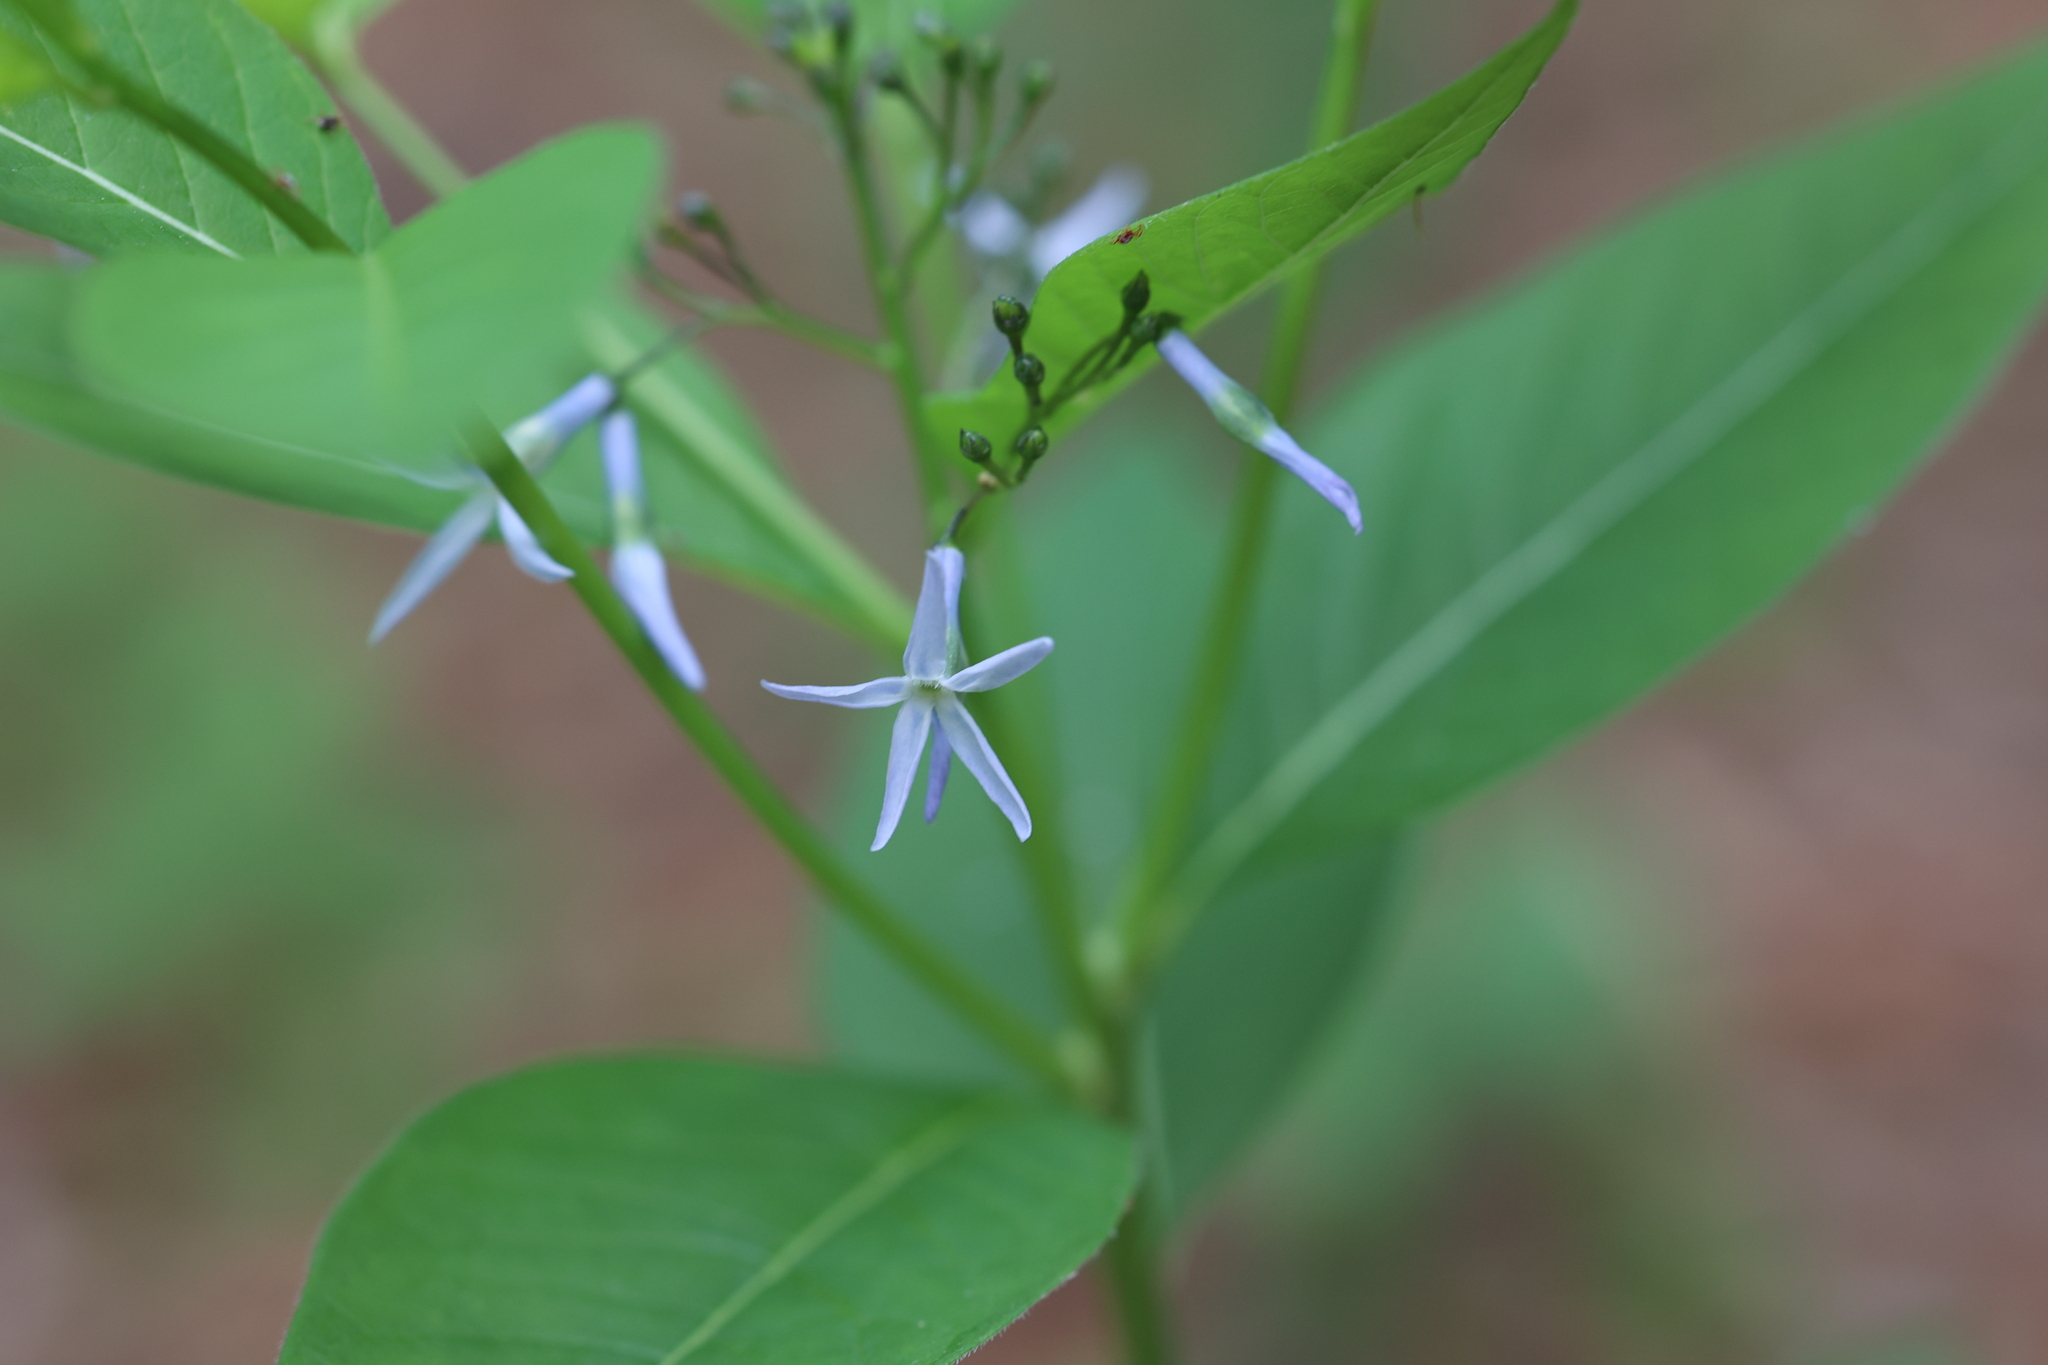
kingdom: Plantae
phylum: Tracheophyta
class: Magnoliopsida
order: Gentianales
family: Apocynaceae
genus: Amsonia
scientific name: Amsonia tabernaemontana
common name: Texas-star
